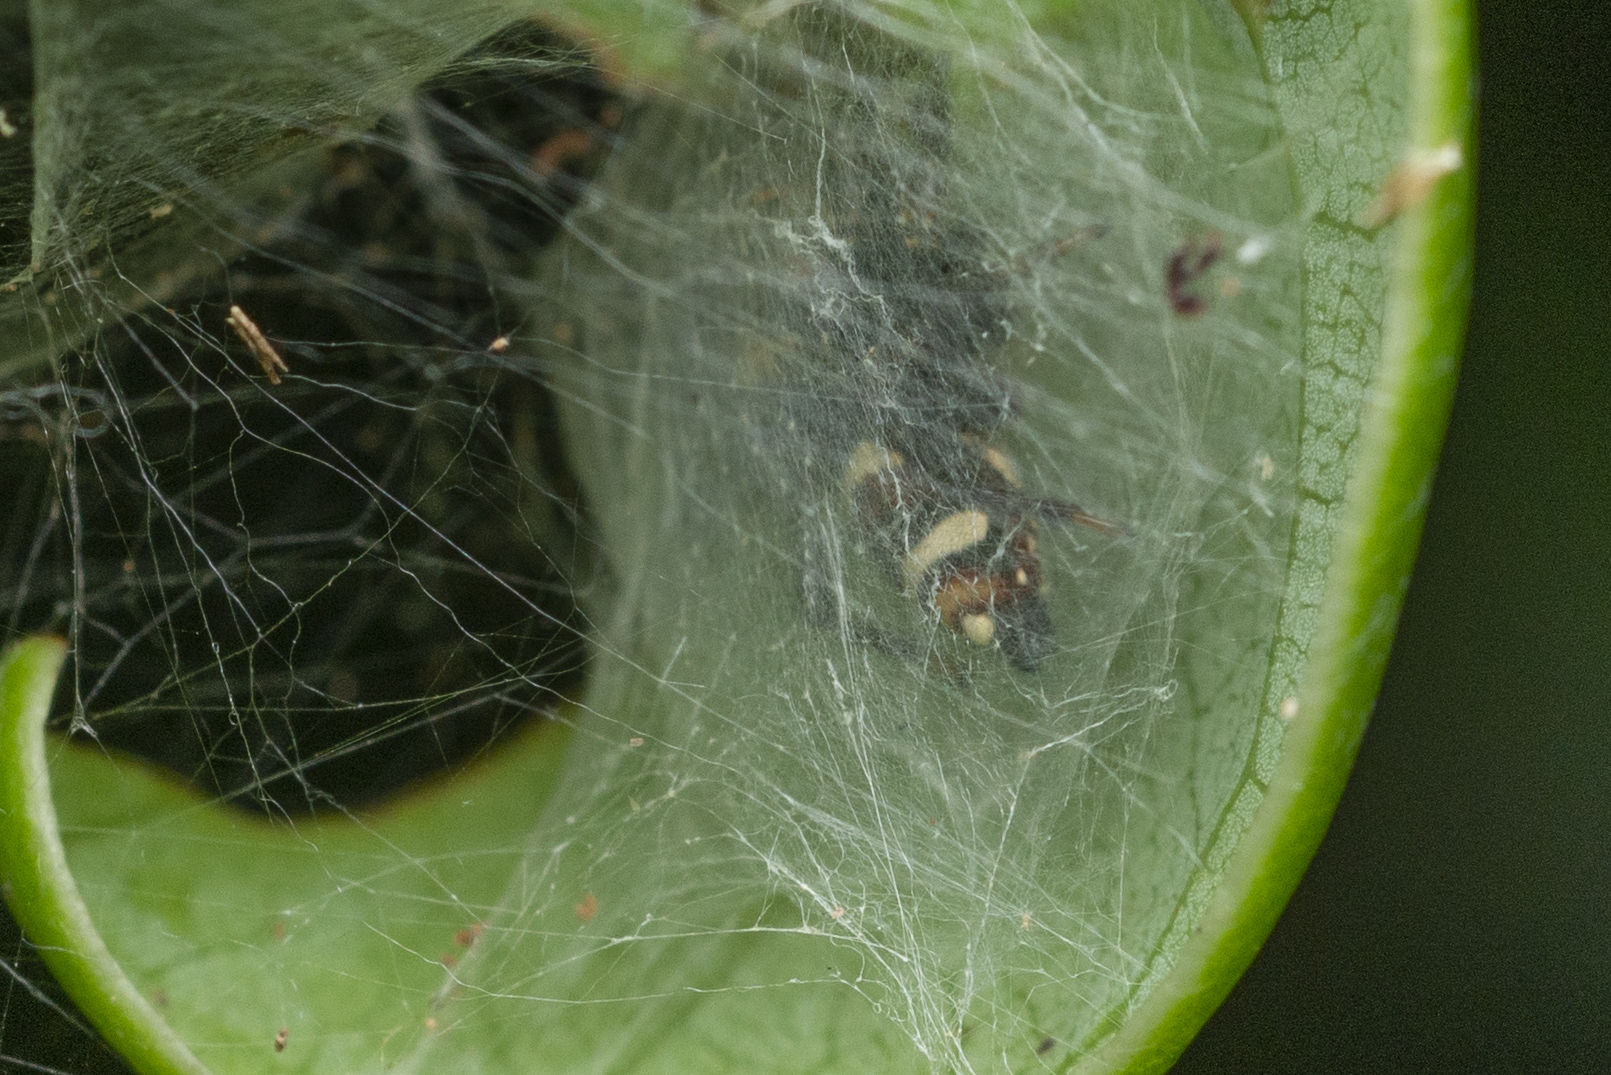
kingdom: Animalia
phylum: Arthropoda
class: Arachnida
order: Araneae
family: Salticidae
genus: Ptocasius
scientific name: Ptocasius strupifer
